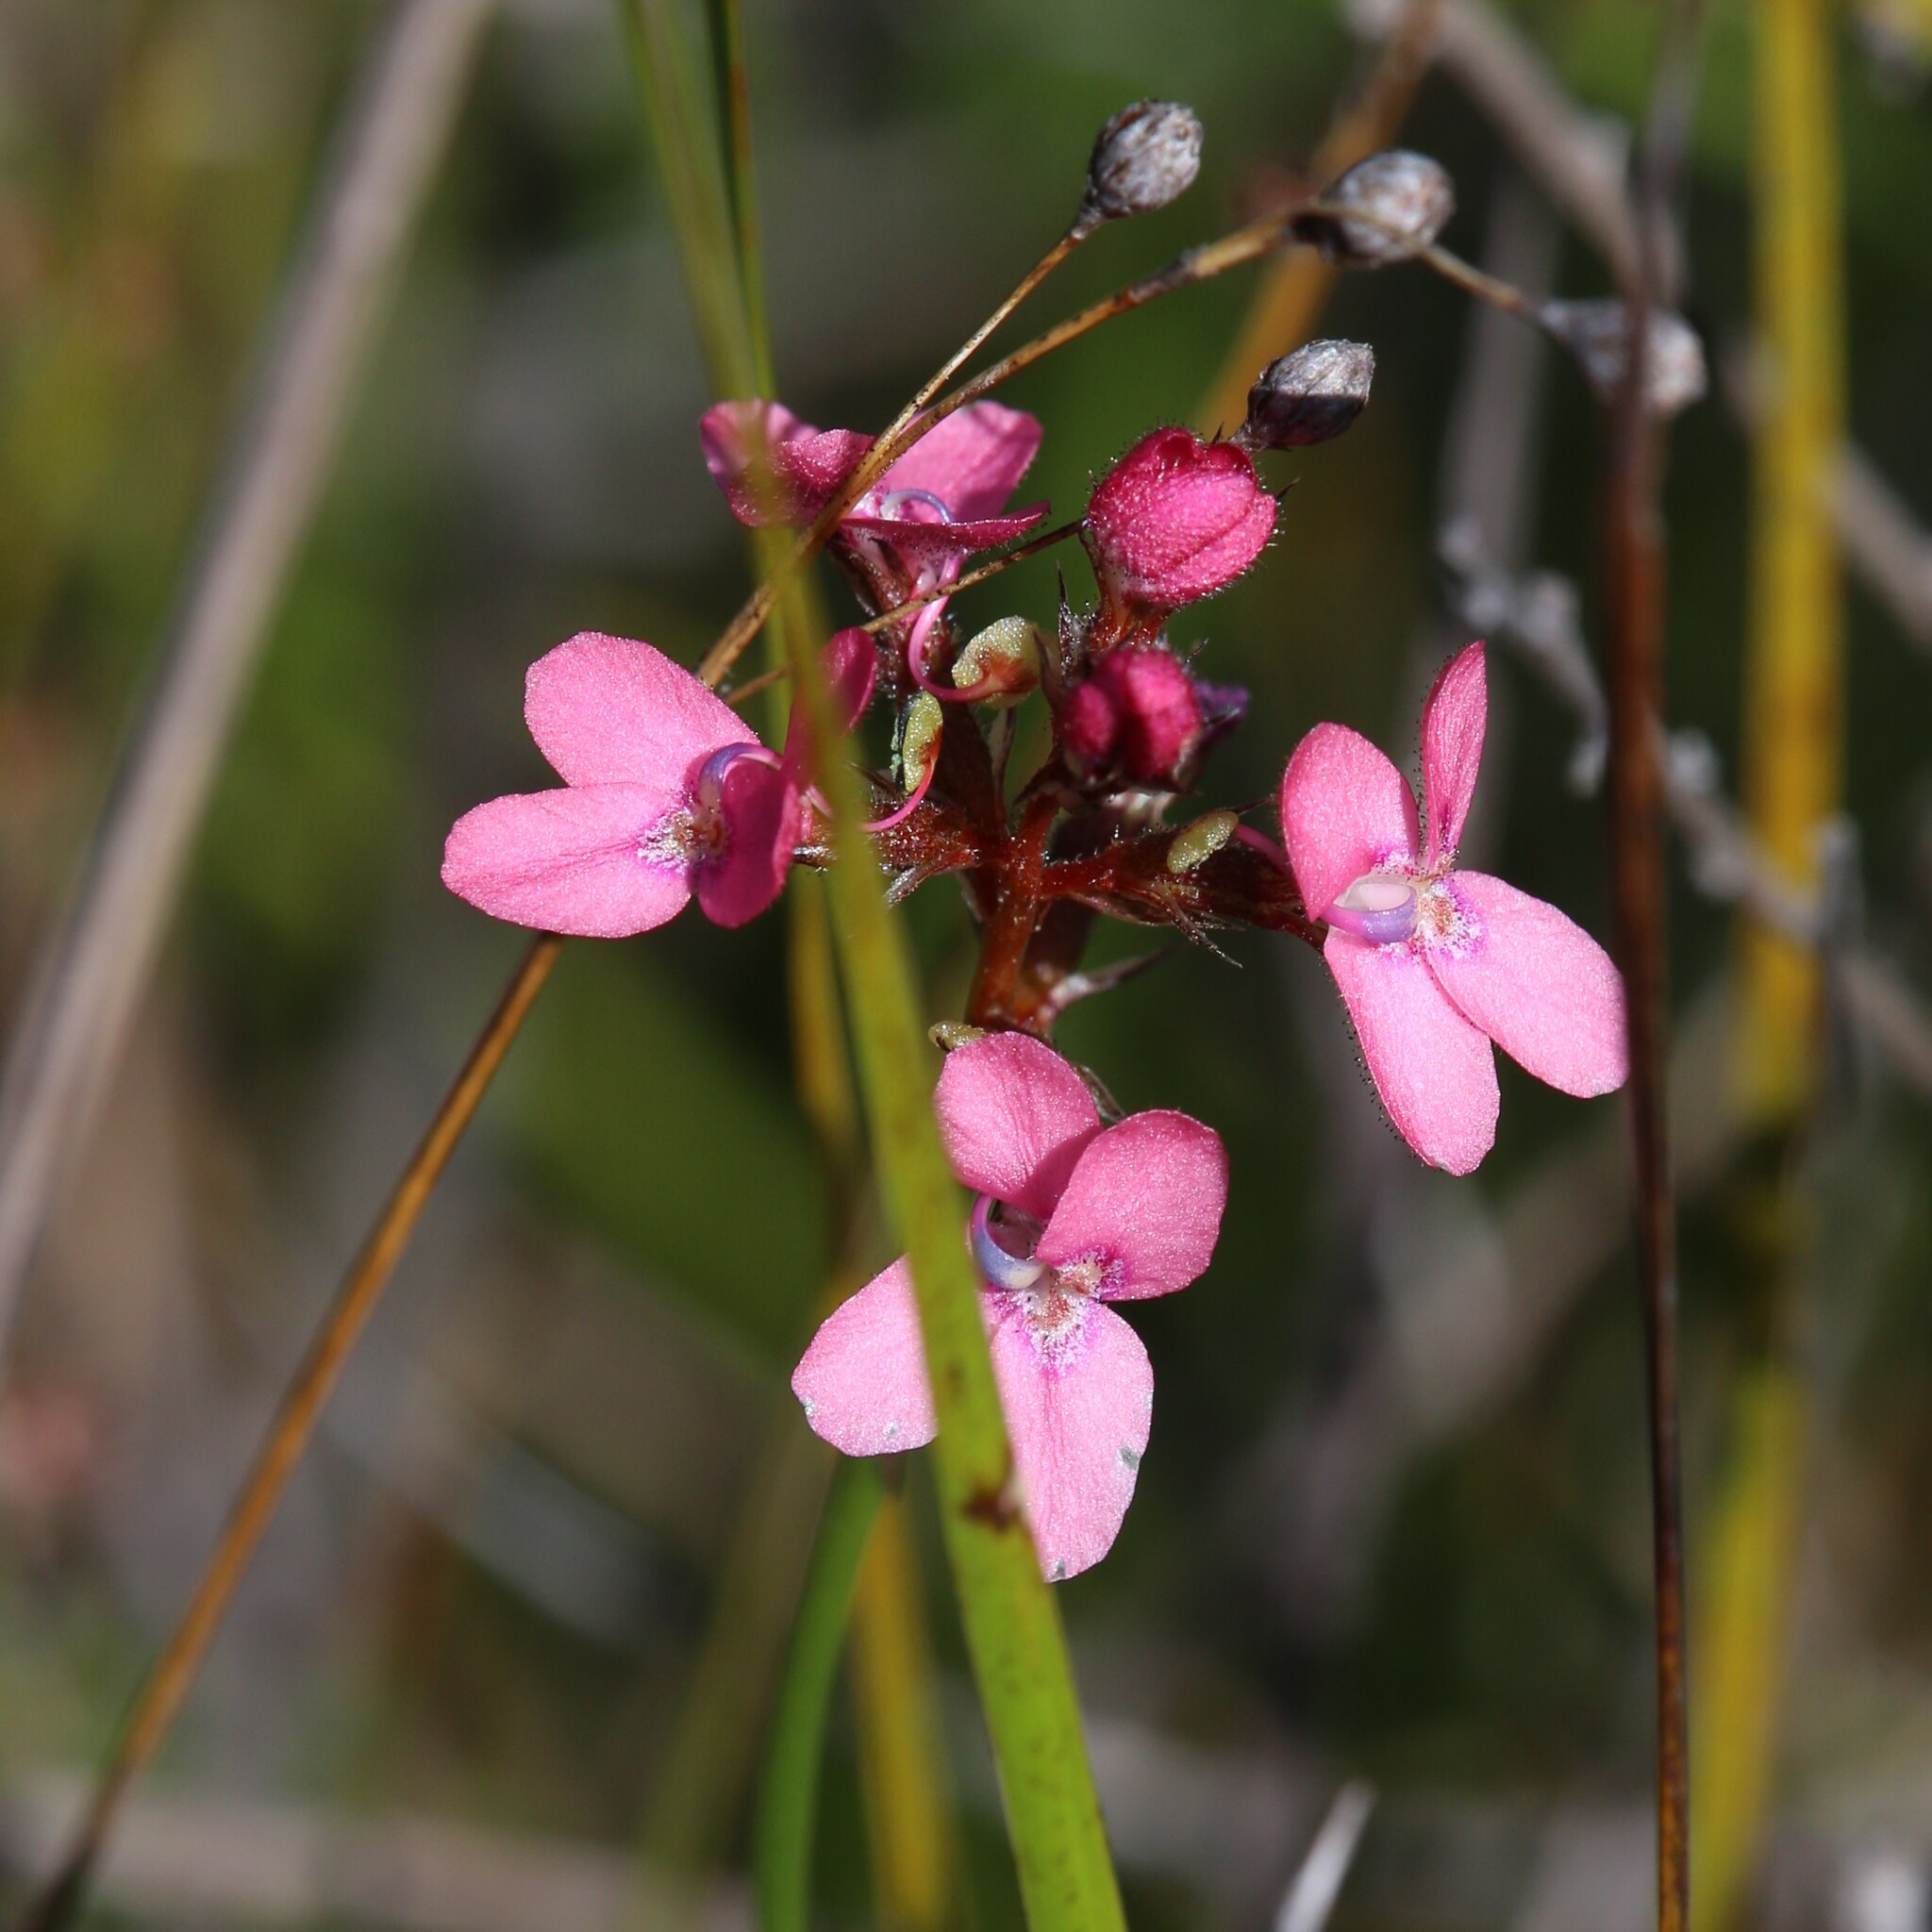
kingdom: Plantae
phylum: Tracheophyta
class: Magnoliopsida
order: Asterales
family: Stylidiaceae
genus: Stylidium
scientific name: Stylidium squamosotuberosum
